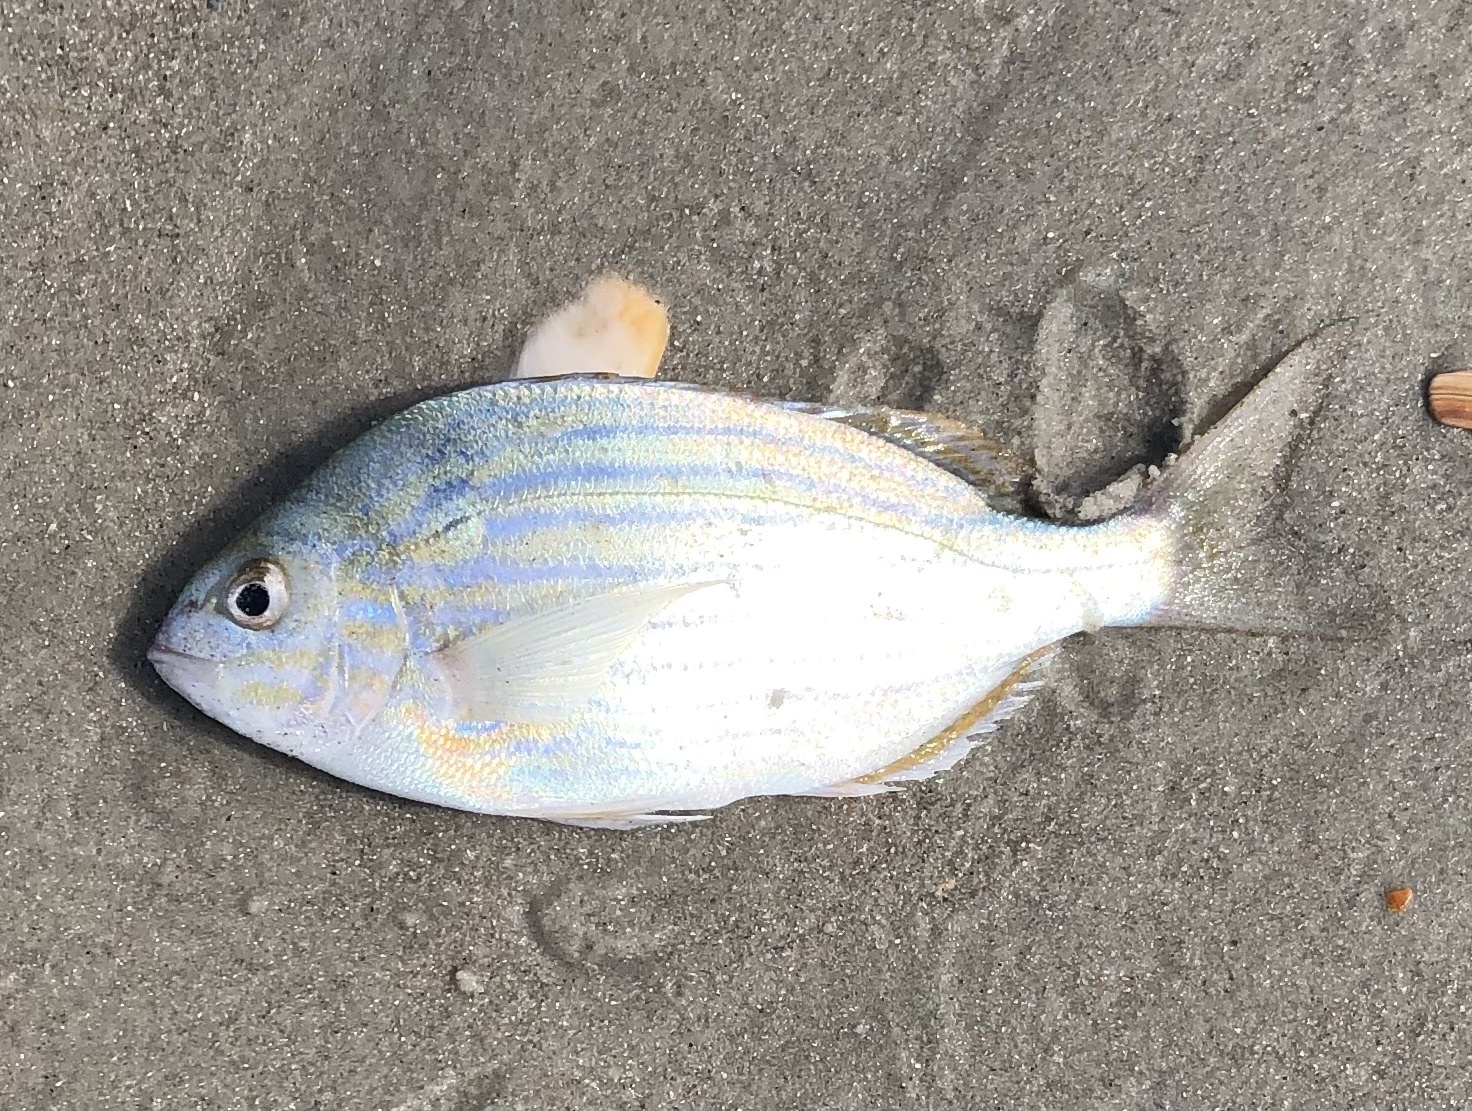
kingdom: Animalia
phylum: Chordata
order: Perciformes
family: Sparidae
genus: Lagodon
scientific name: Lagodon rhomboides
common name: Pinfish
